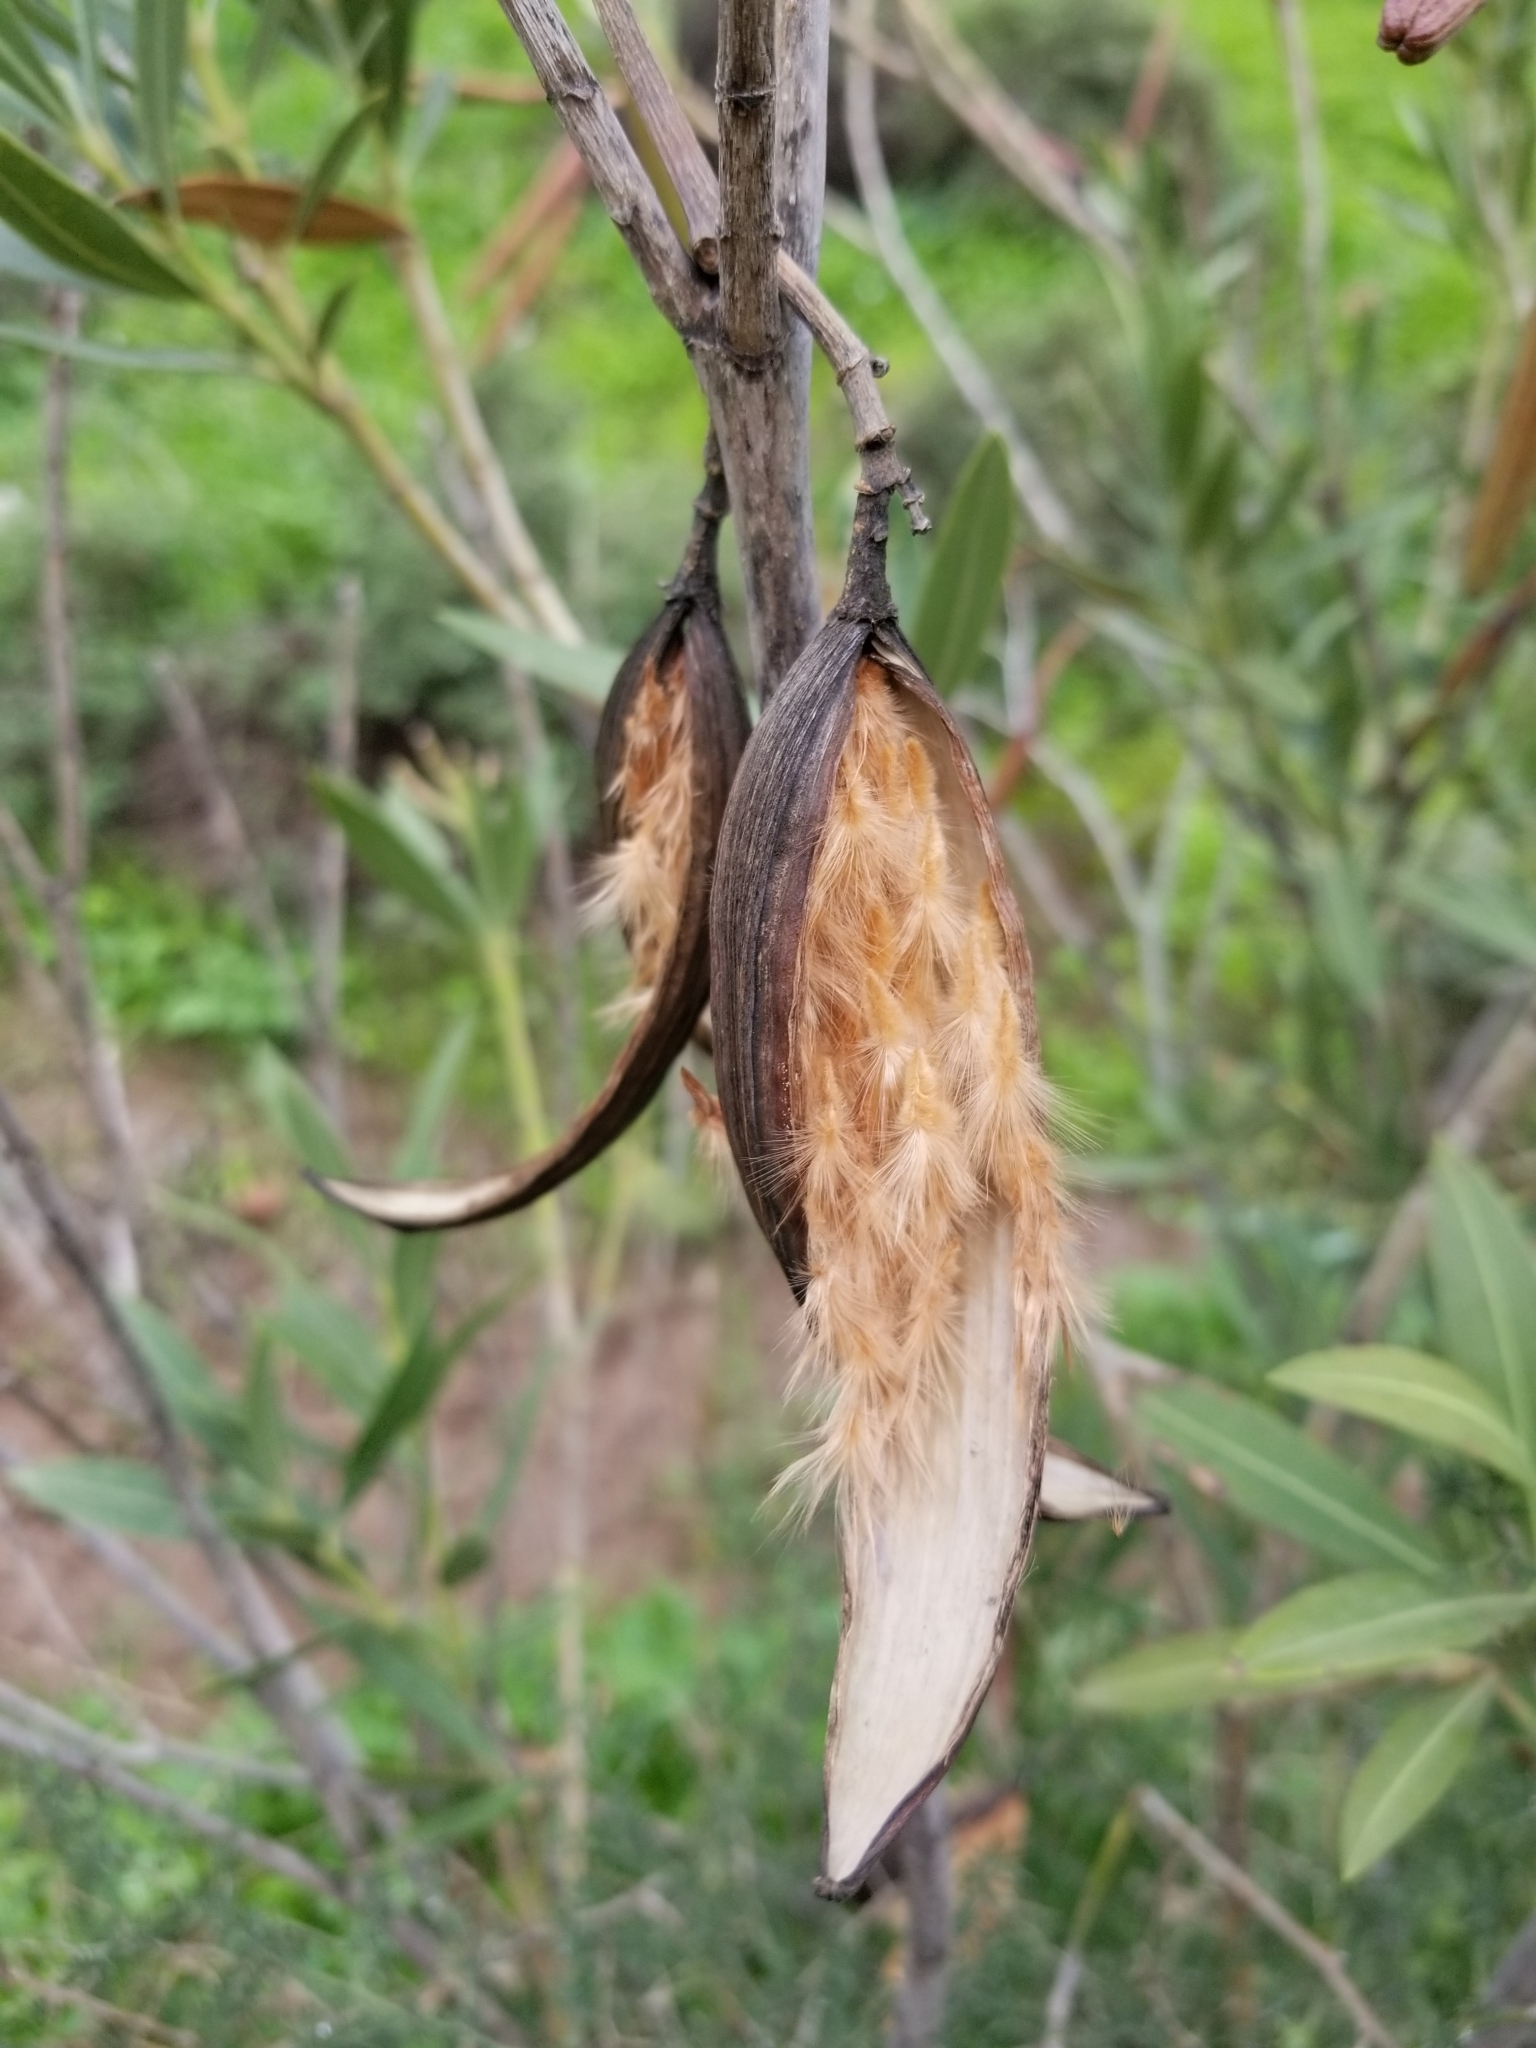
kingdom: Plantae
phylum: Tracheophyta
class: Magnoliopsida
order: Gentianales
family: Apocynaceae
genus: Nerium
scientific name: Nerium oleander
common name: Oleander
